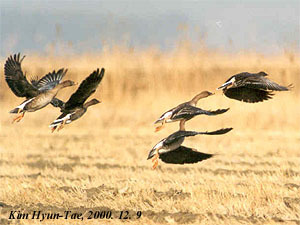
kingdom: Animalia
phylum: Chordata
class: Aves
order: Anseriformes
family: Anatidae
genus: Anser
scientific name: Anser fabalis
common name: Bean goose
